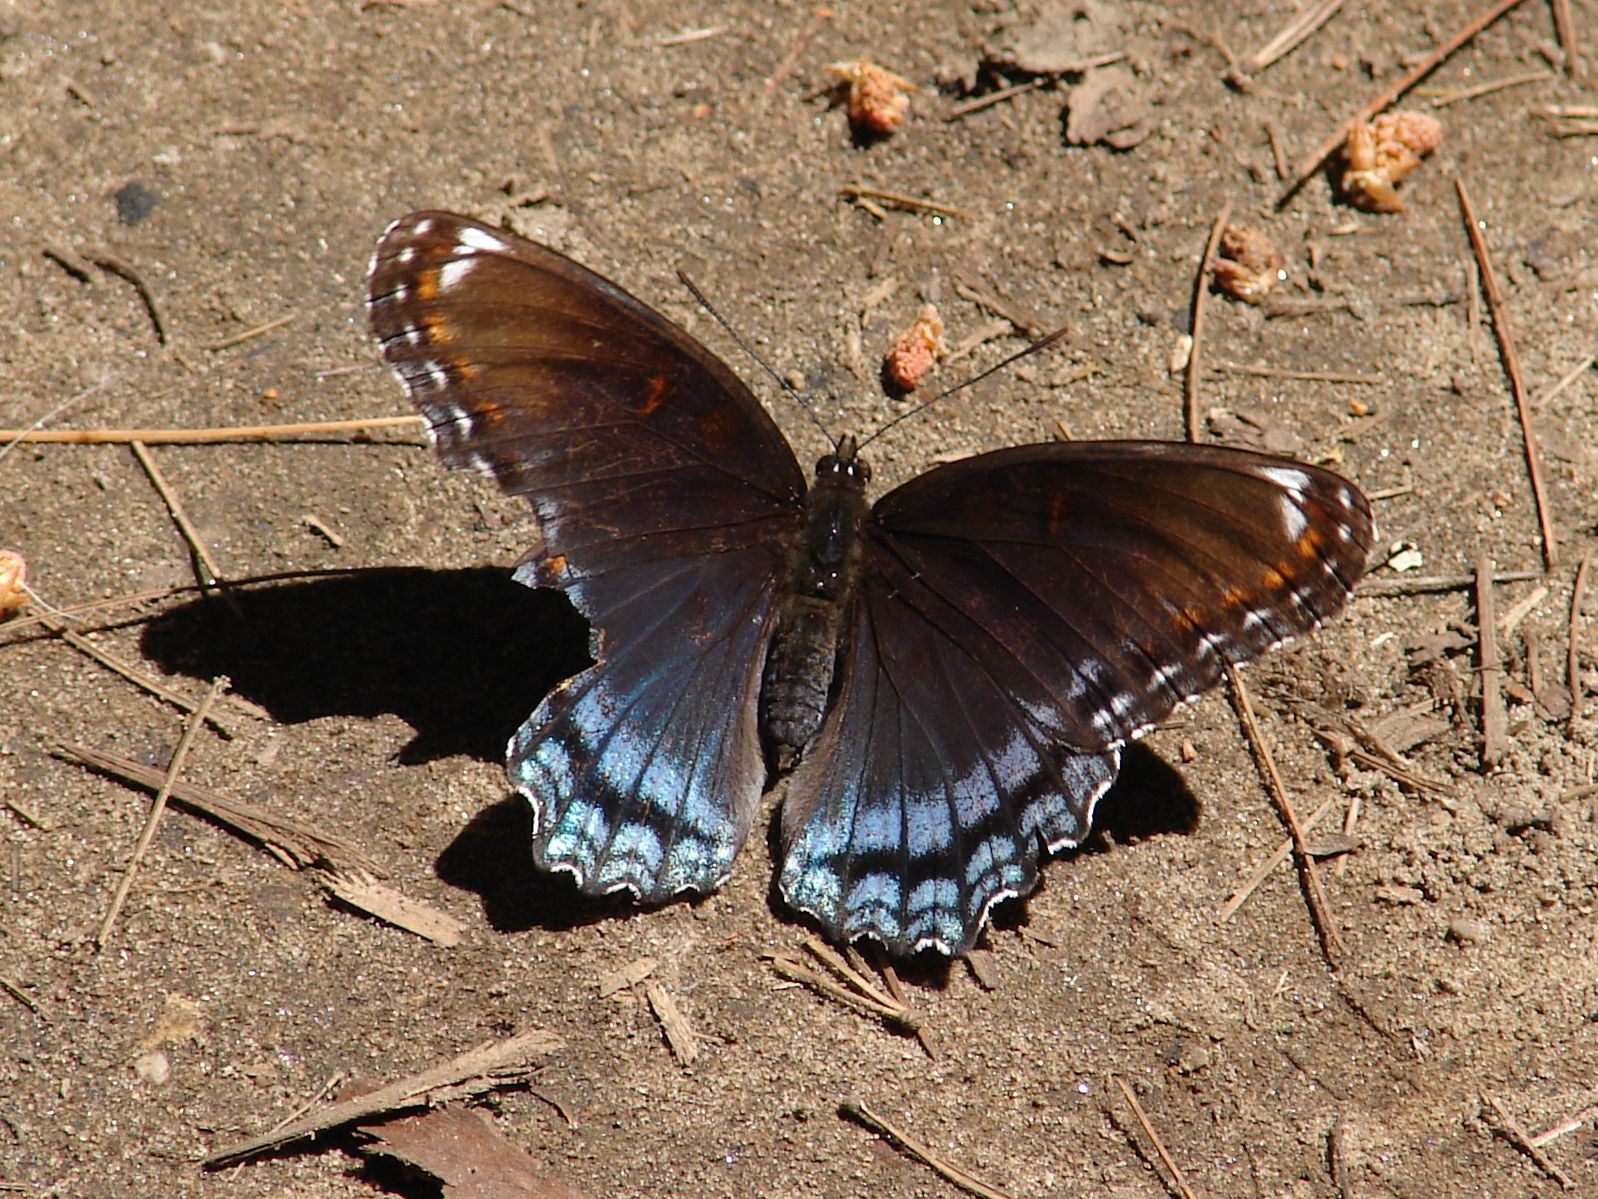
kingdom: Animalia
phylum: Arthropoda
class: Insecta
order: Lepidoptera
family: Nymphalidae
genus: Limenitis
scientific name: Limenitis astyanax
